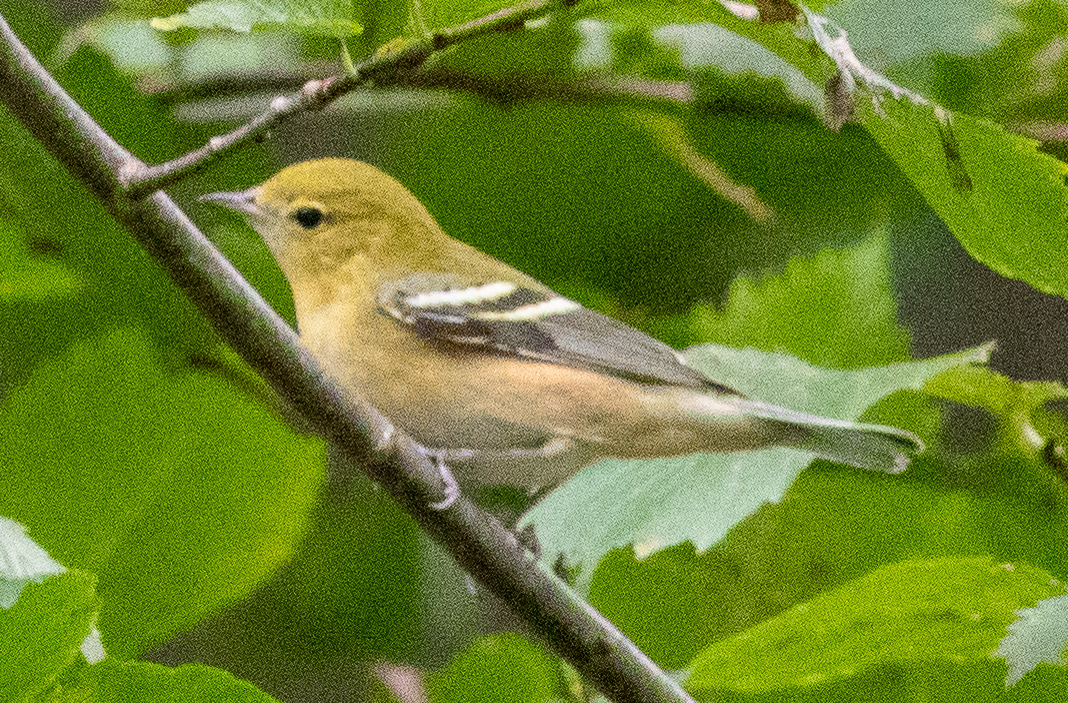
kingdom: Animalia
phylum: Chordata
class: Aves
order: Passeriformes
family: Parulidae
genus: Setophaga
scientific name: Setophaga castanea
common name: Bay-breasted warbler
